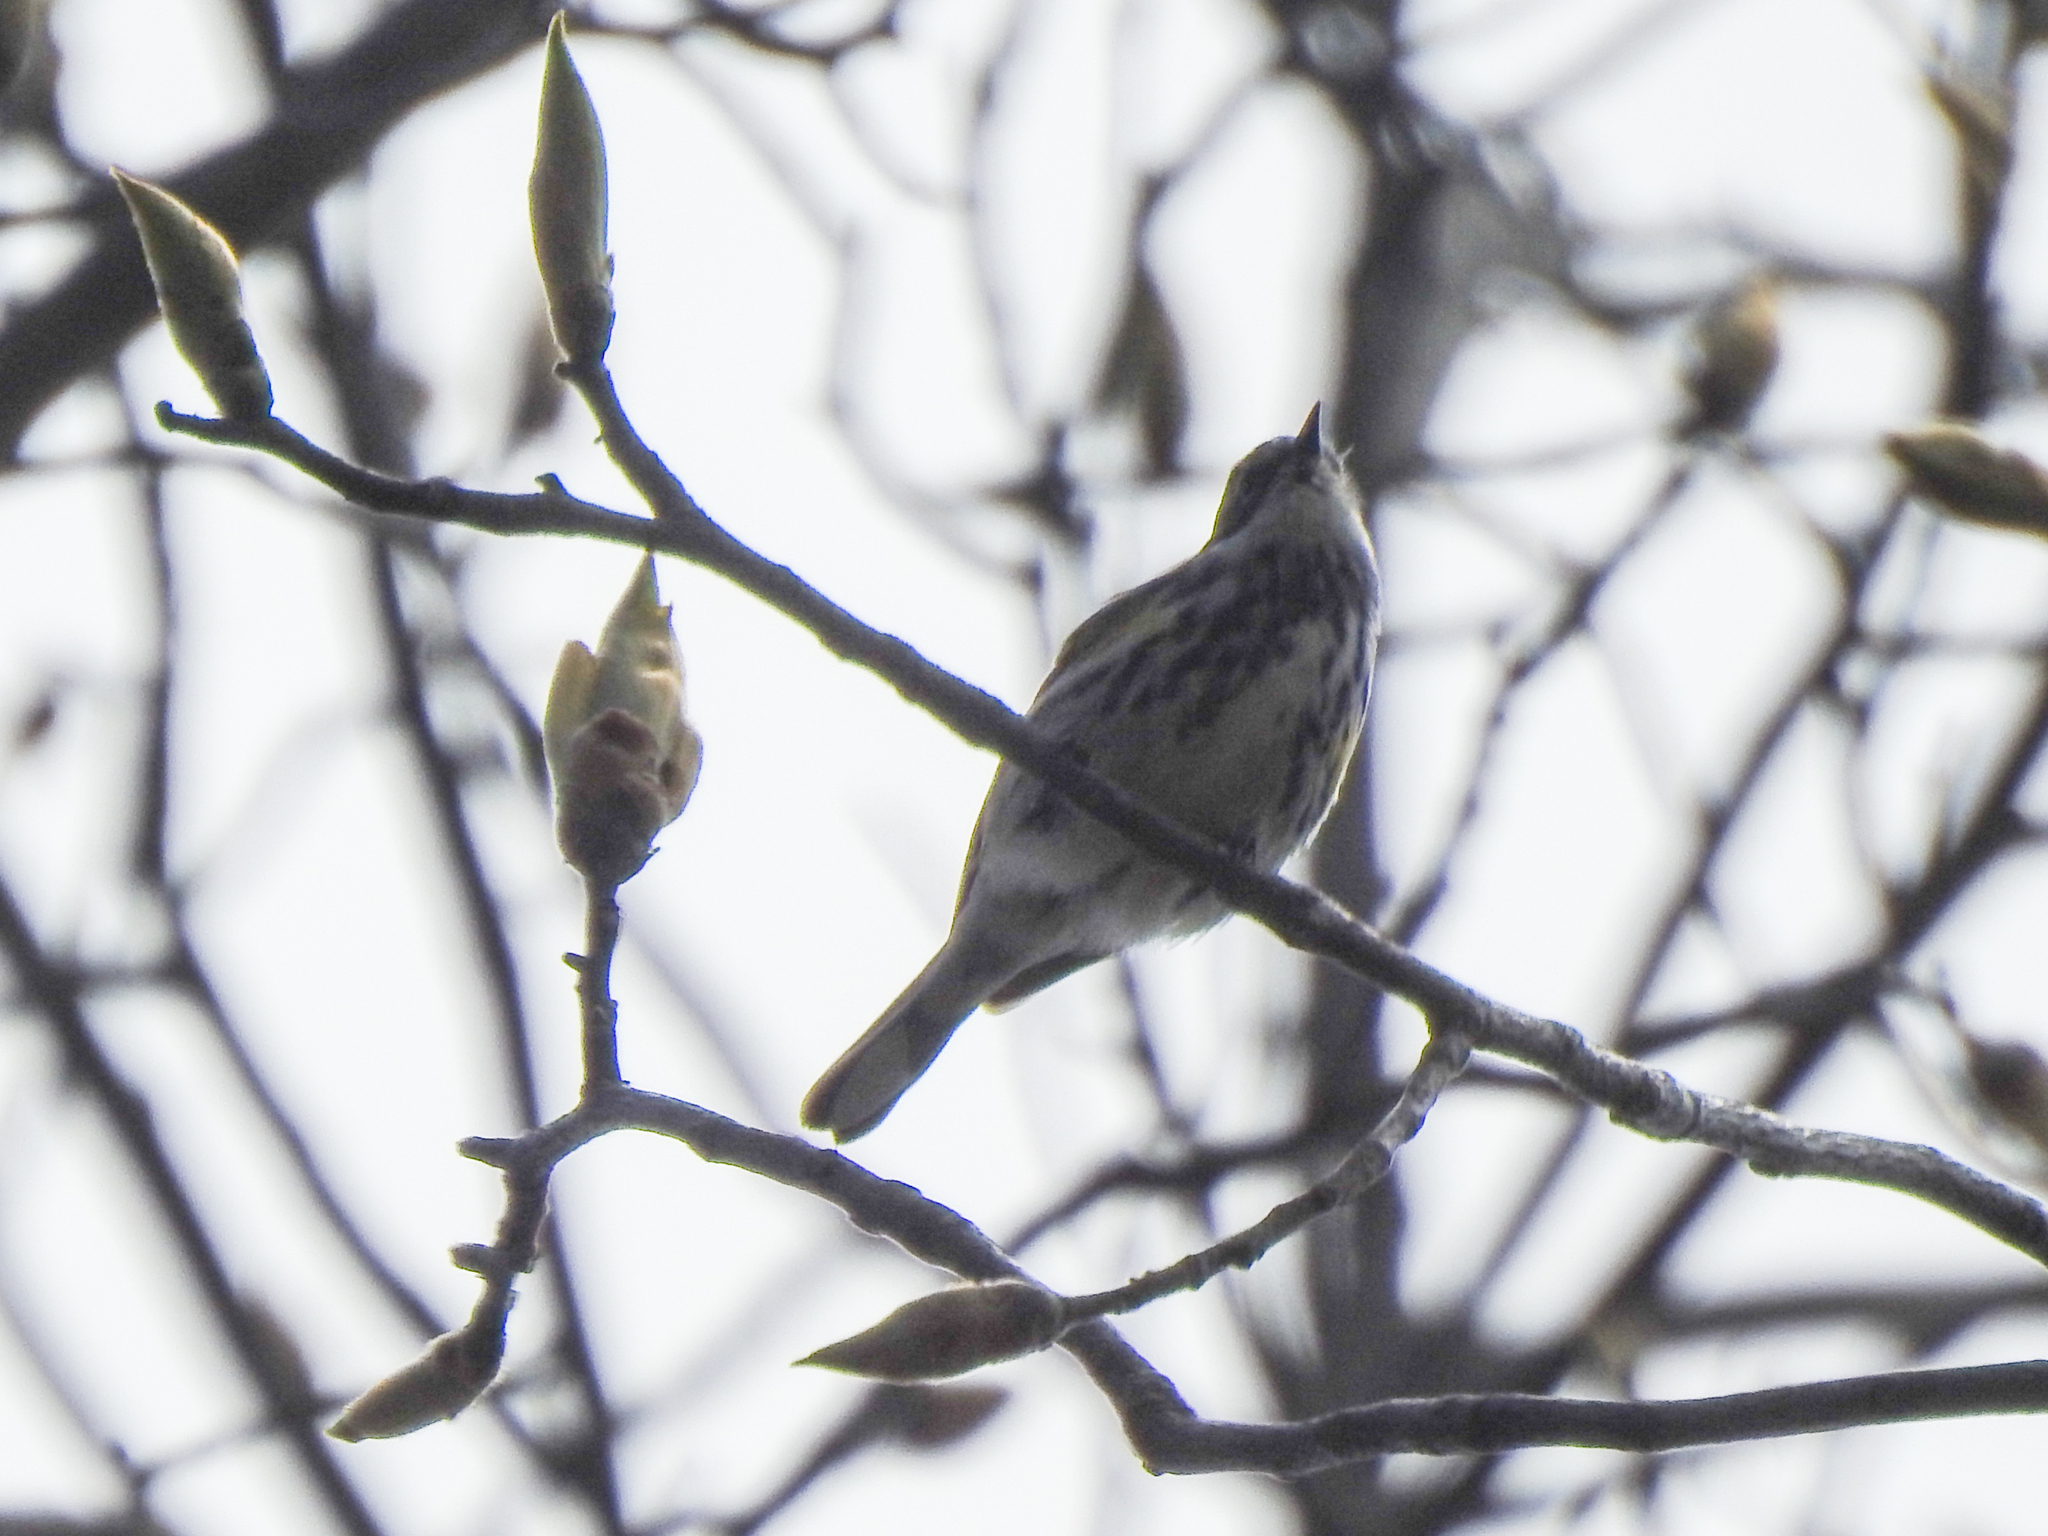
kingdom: Animalia
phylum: Chordata
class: Aves
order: Passeriformes
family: Parulidae
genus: Setophaga
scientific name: Setophaga coronata
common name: Myrtle warbler
